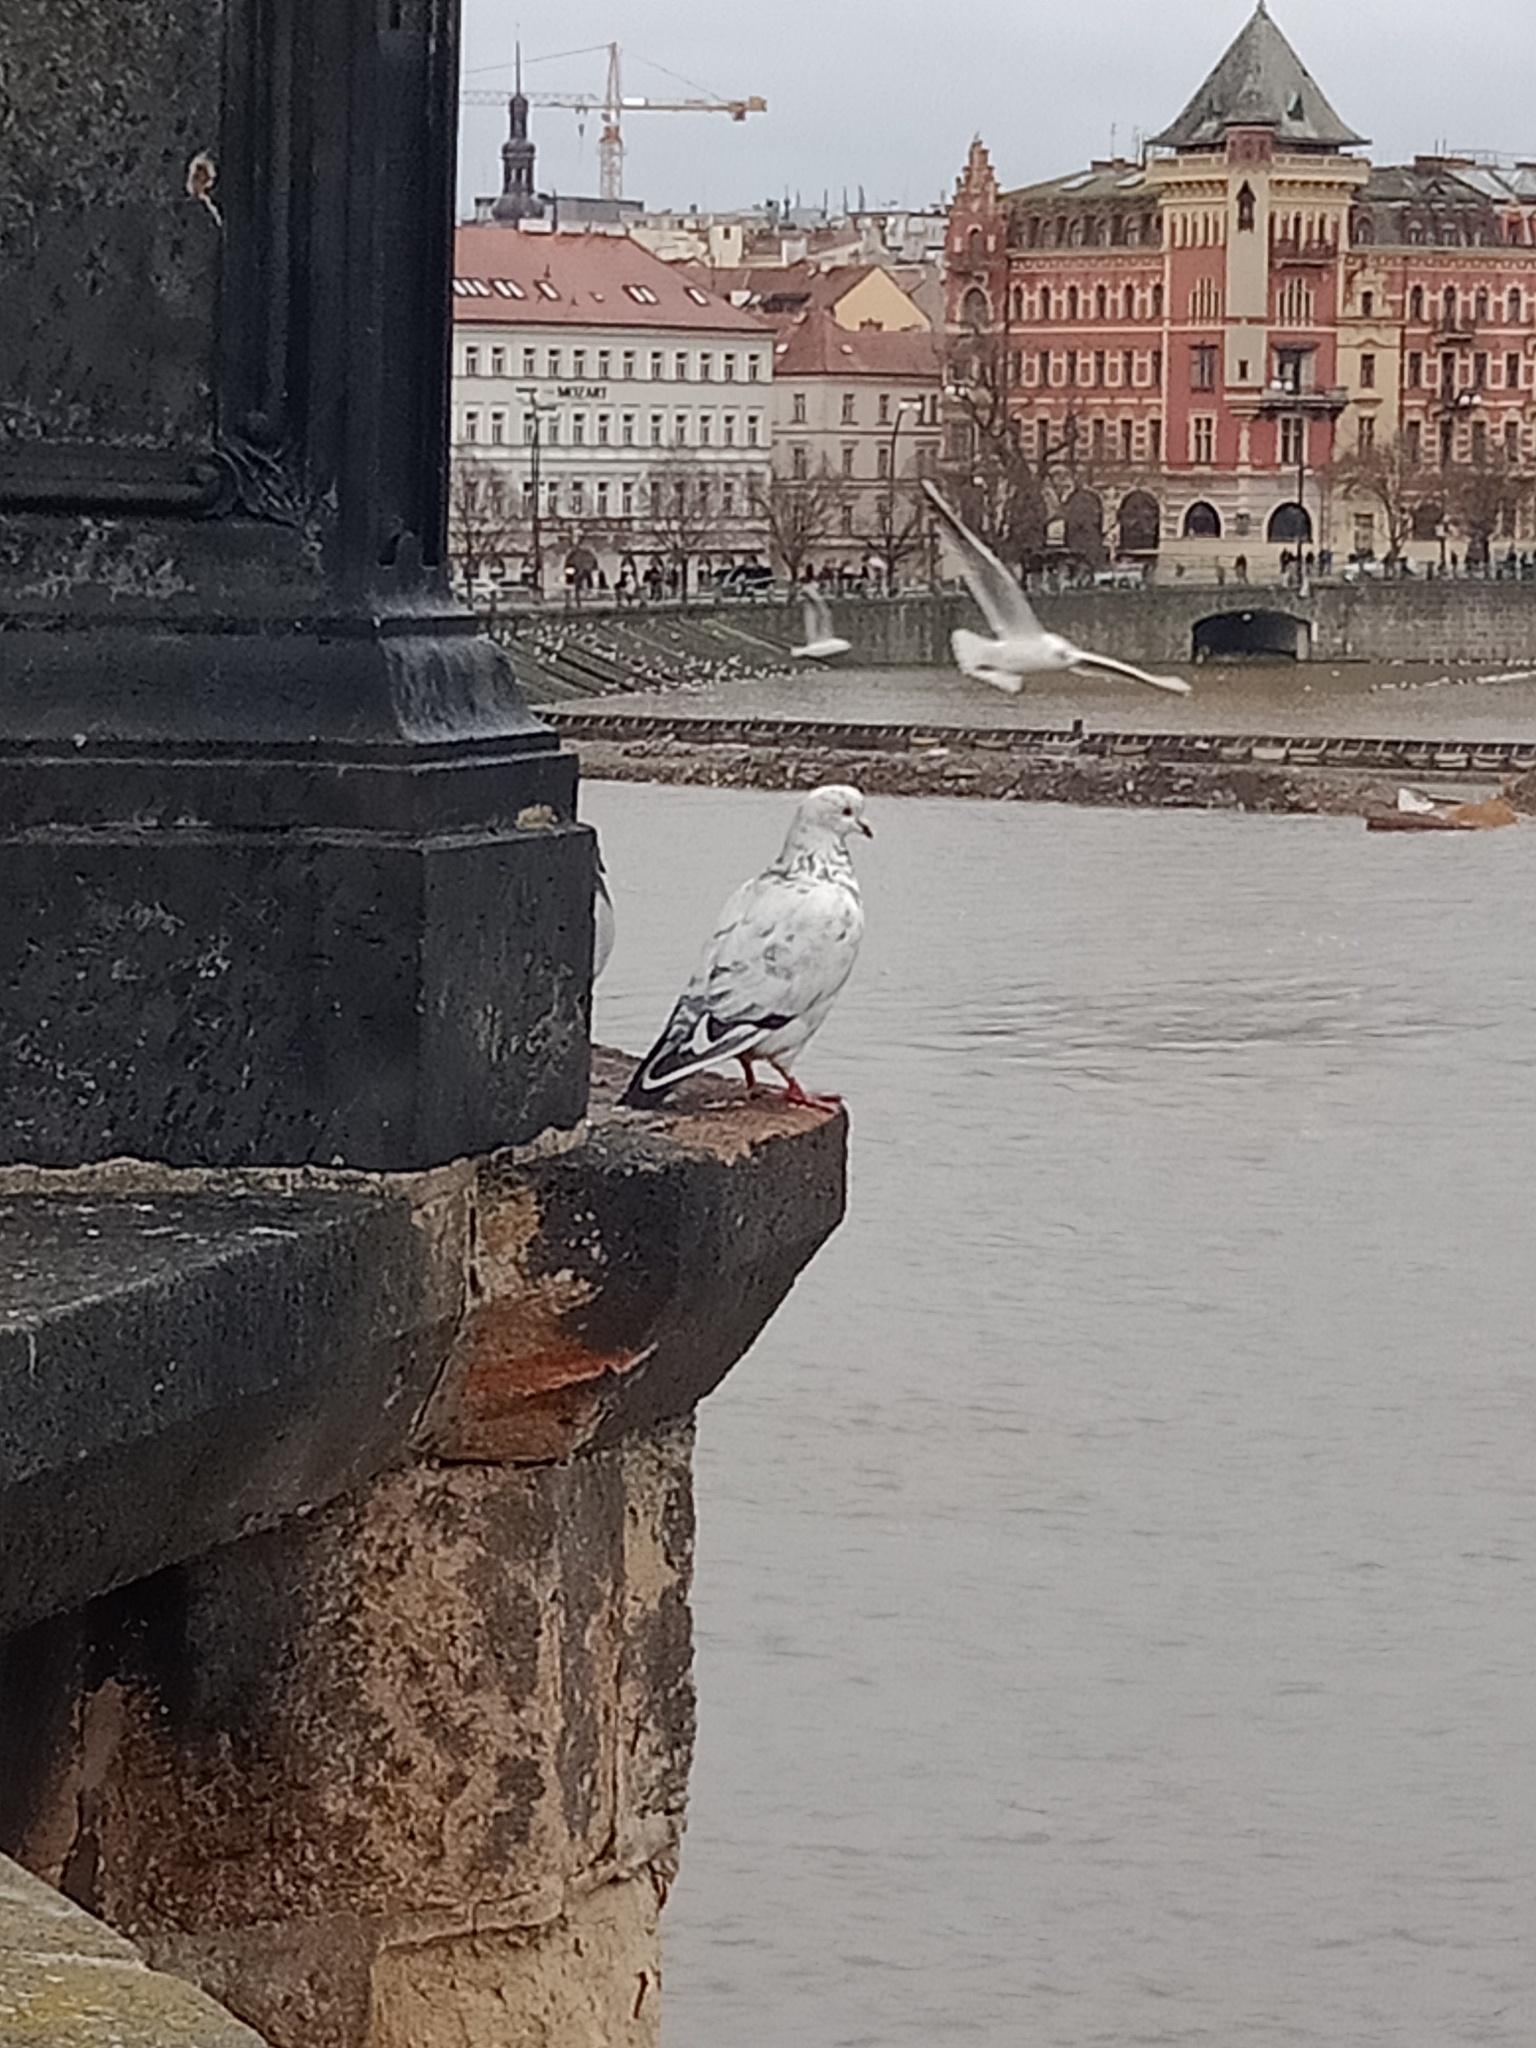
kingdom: Animalia
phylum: Chordata
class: Aves
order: Columbiformes
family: Columbidae
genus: Columba
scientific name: Columba livia
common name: Rock pigeon
